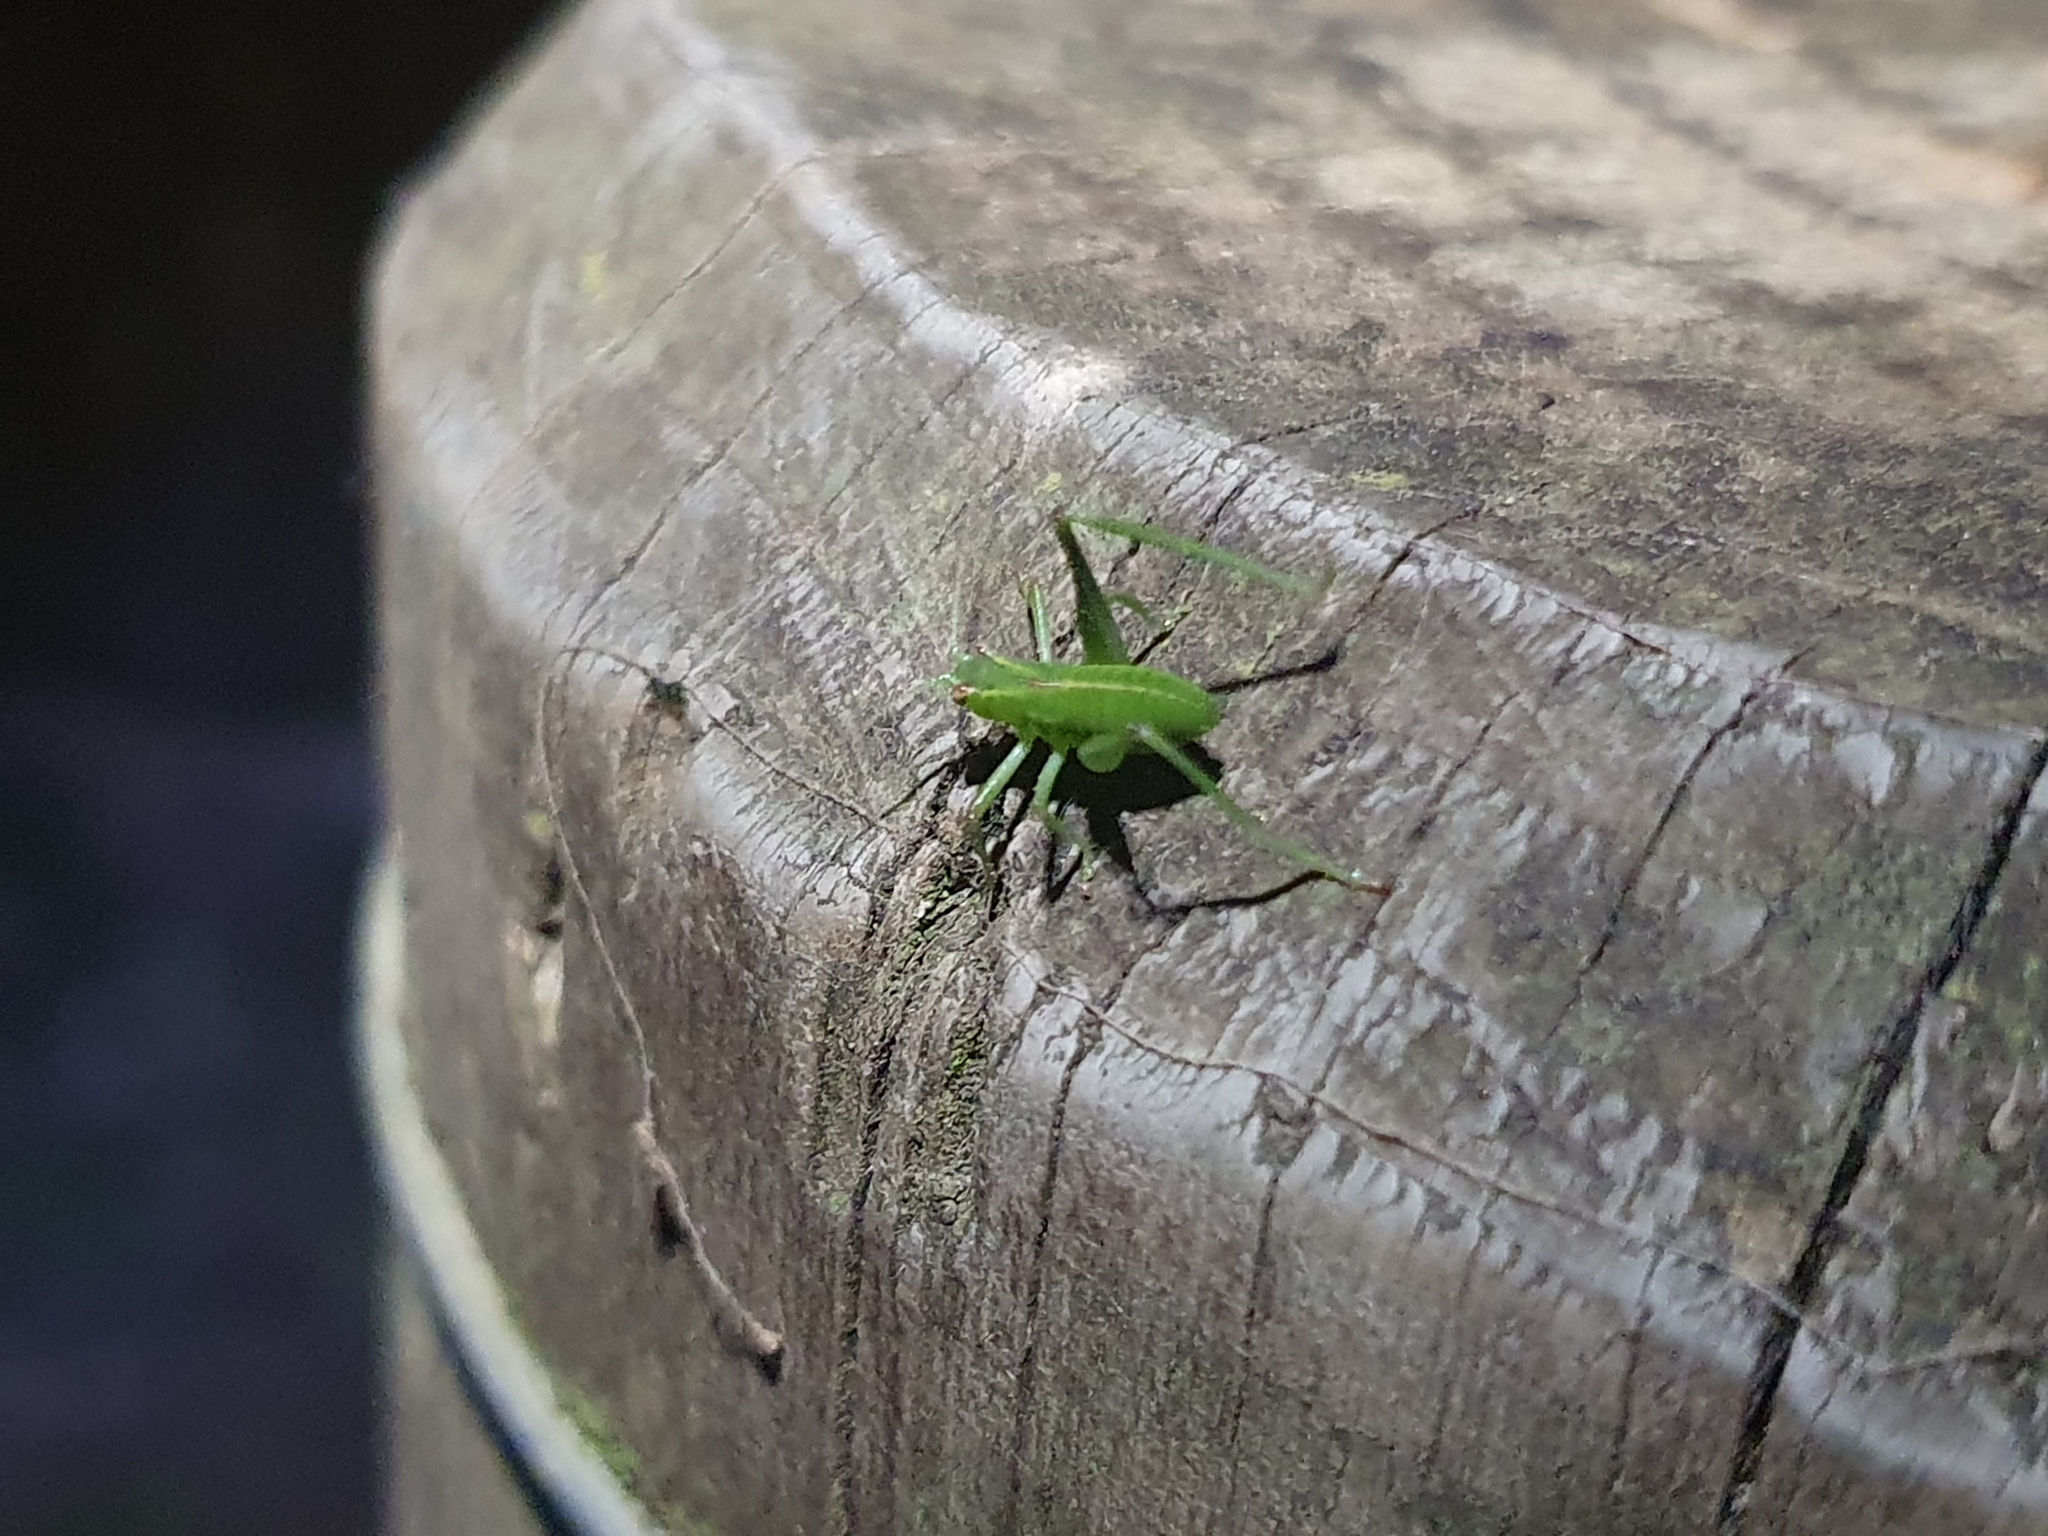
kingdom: Animalia
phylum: Arthropoda
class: Insecta
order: Orthoptera
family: Tettigoniidae
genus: Caedicia
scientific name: Caedicia simplex
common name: Common garden katydid
